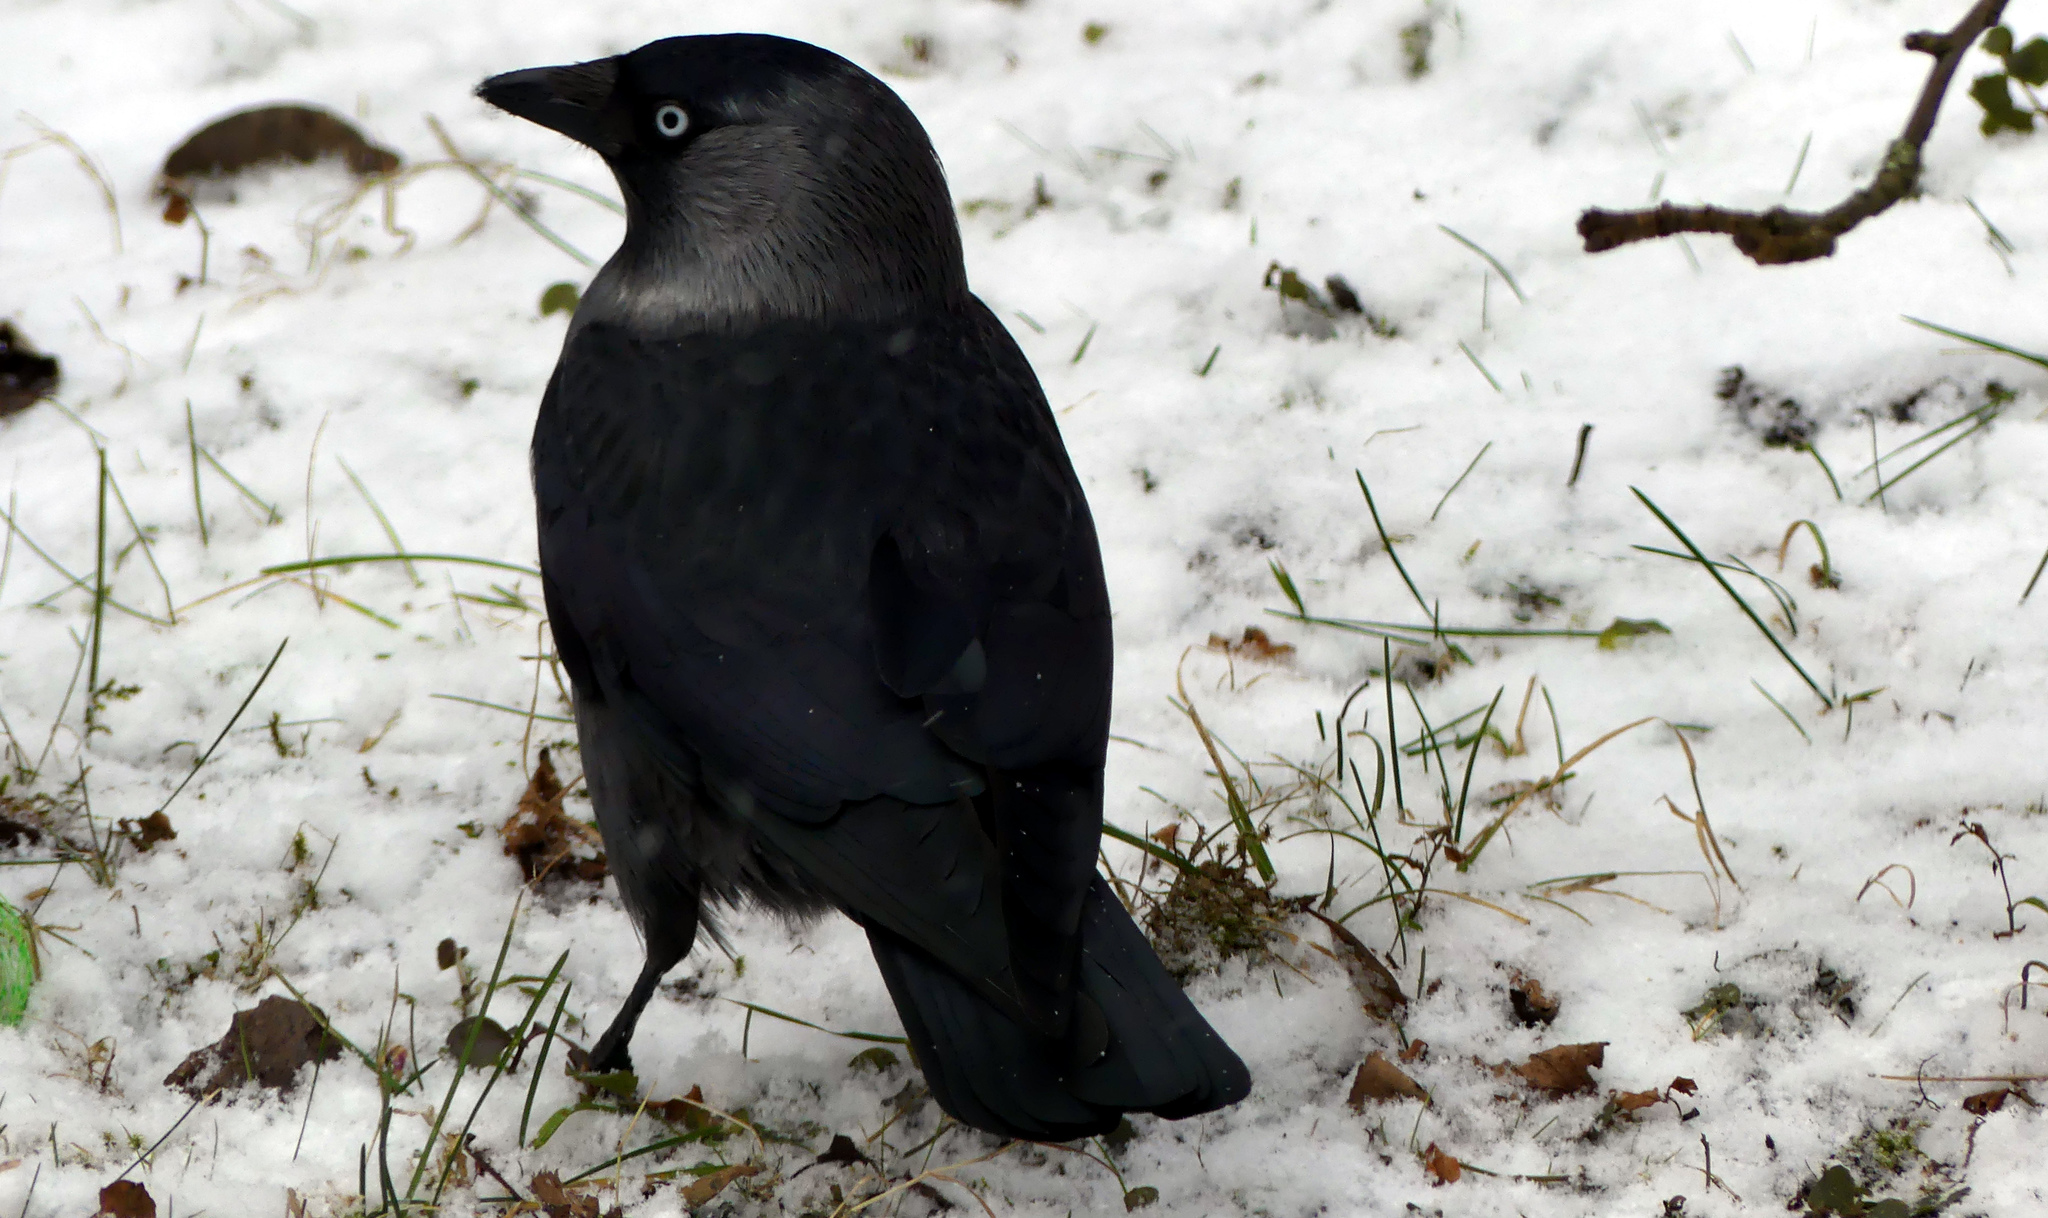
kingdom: Animalia
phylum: Chordata
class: Aves
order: Passeriformes
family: Corvidae
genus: Coloeus
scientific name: Coloeus monedula
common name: Western jackdaw
